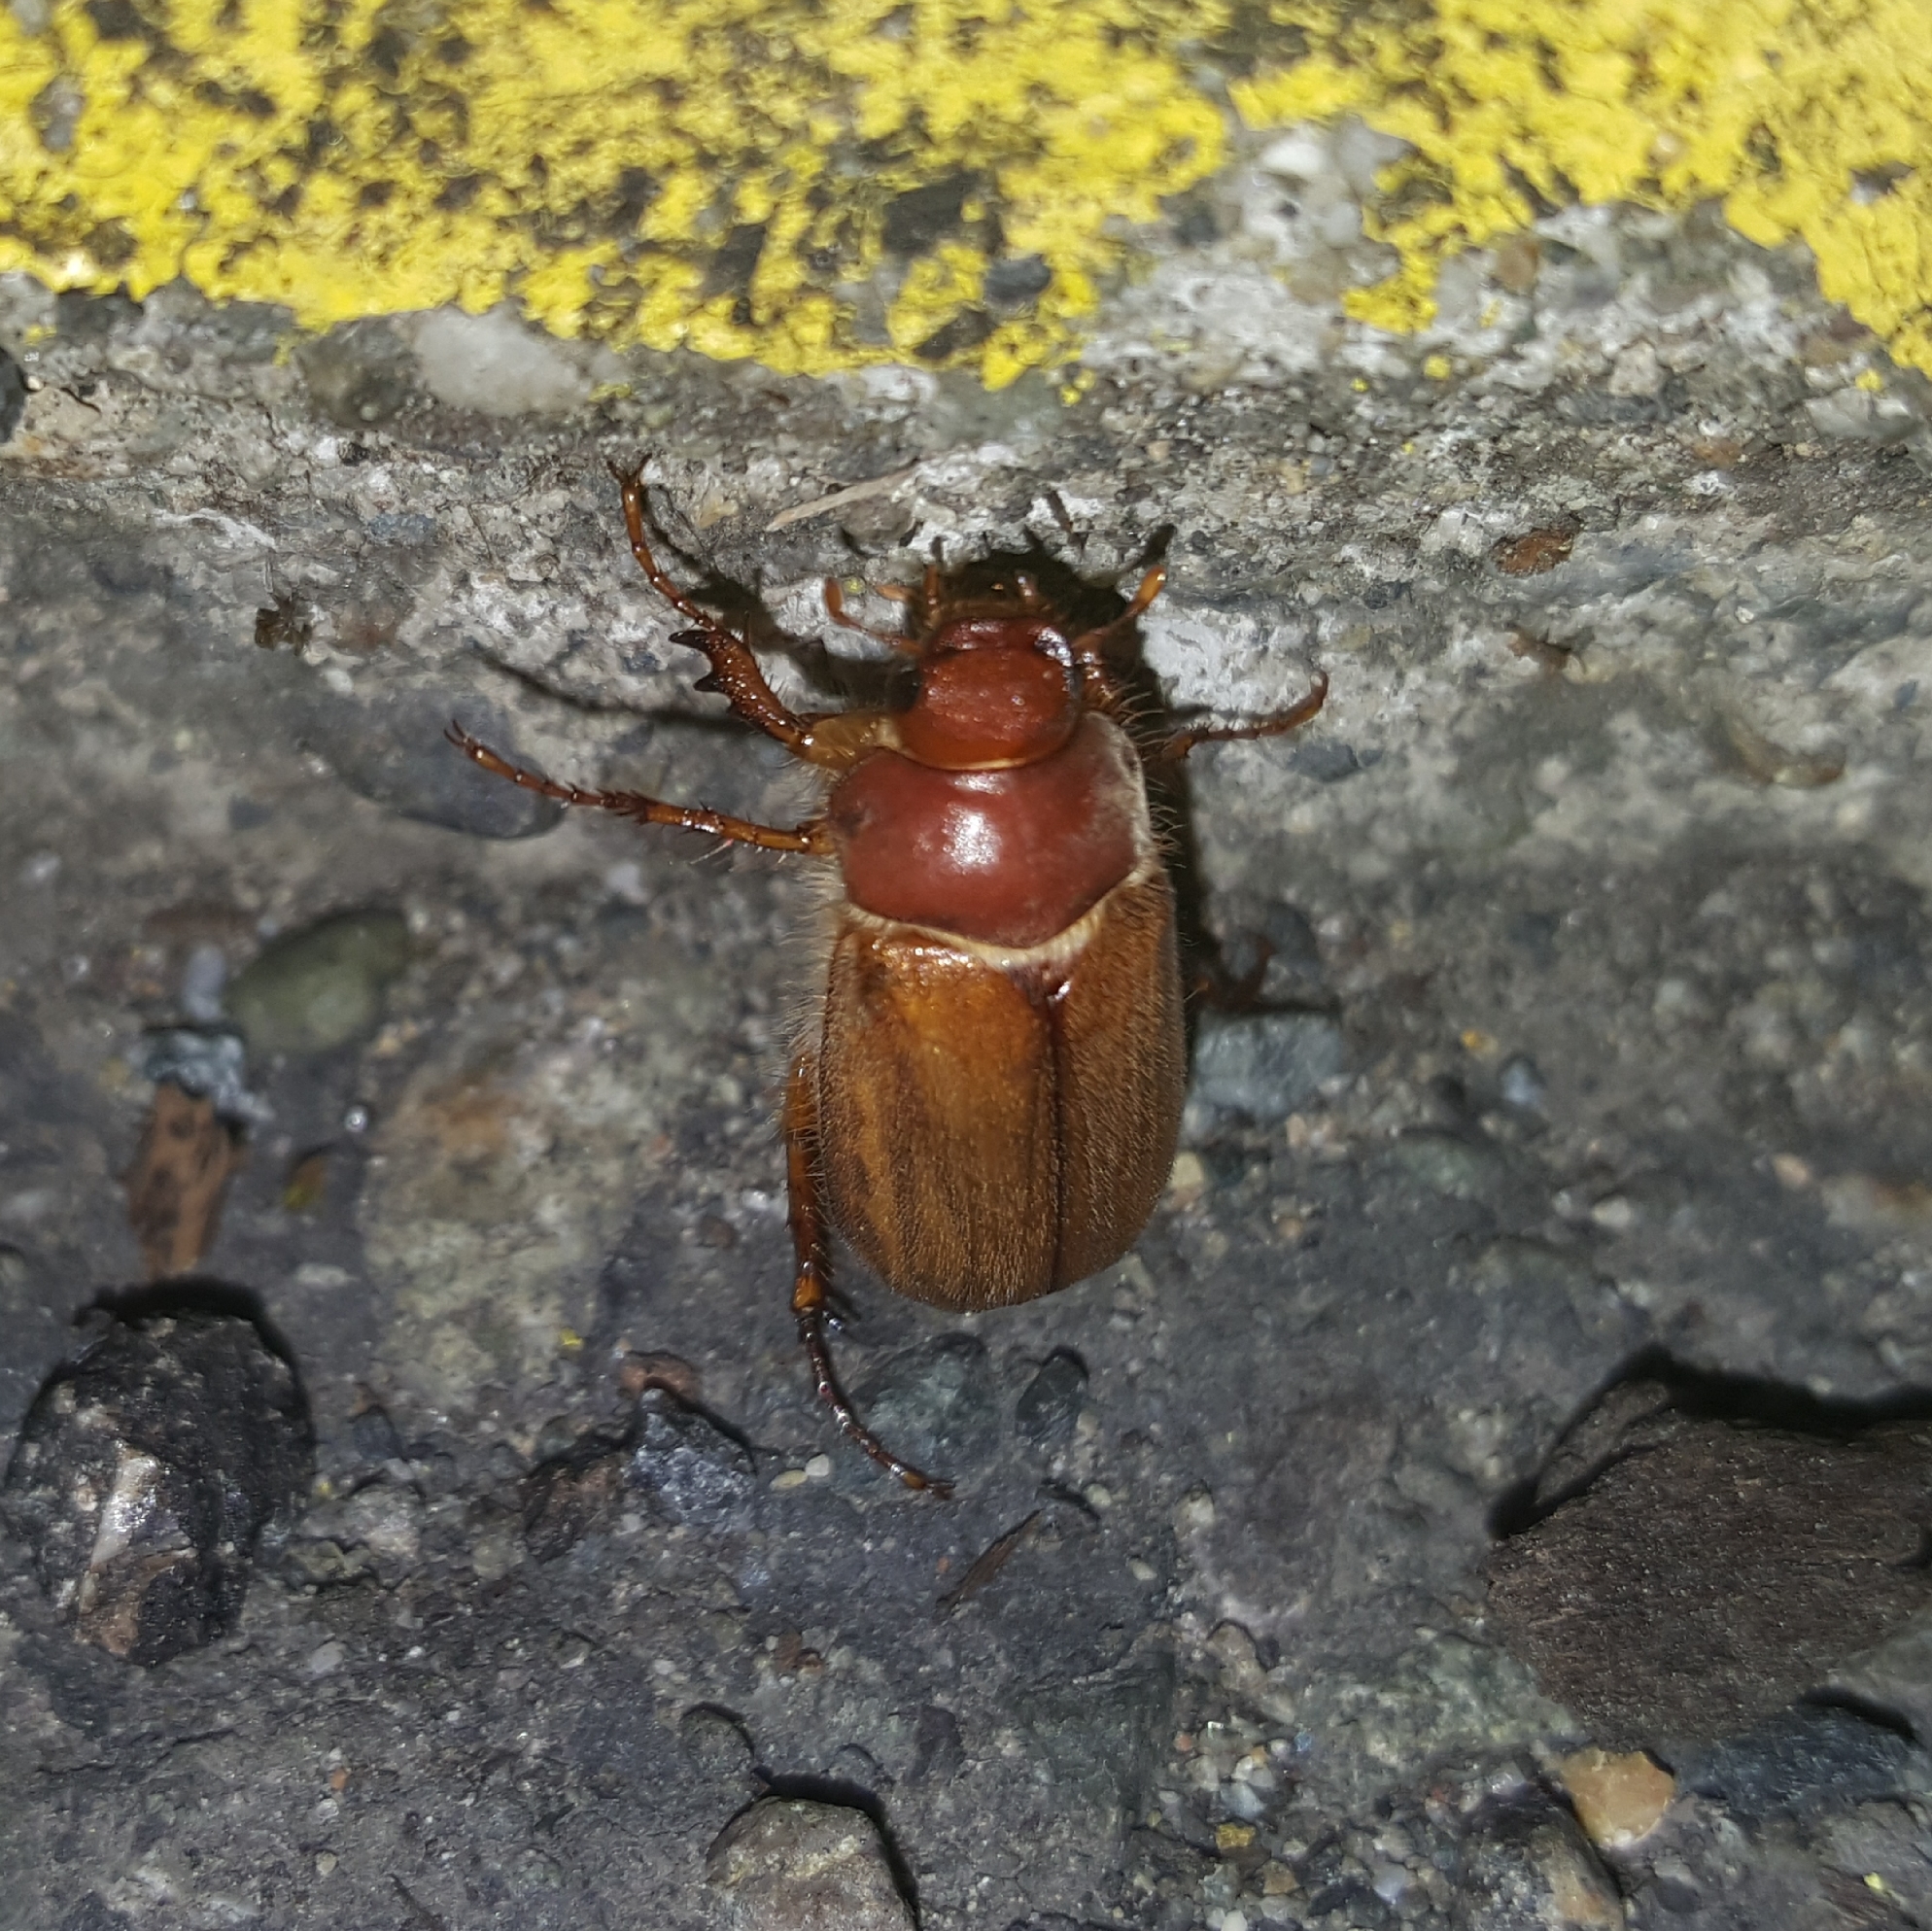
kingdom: Animalia
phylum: Arthropoda
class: Insecta
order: Coleoptera
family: Scarabaeidae
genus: Amphimallon
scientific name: Amphimallon majale
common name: European chafer
